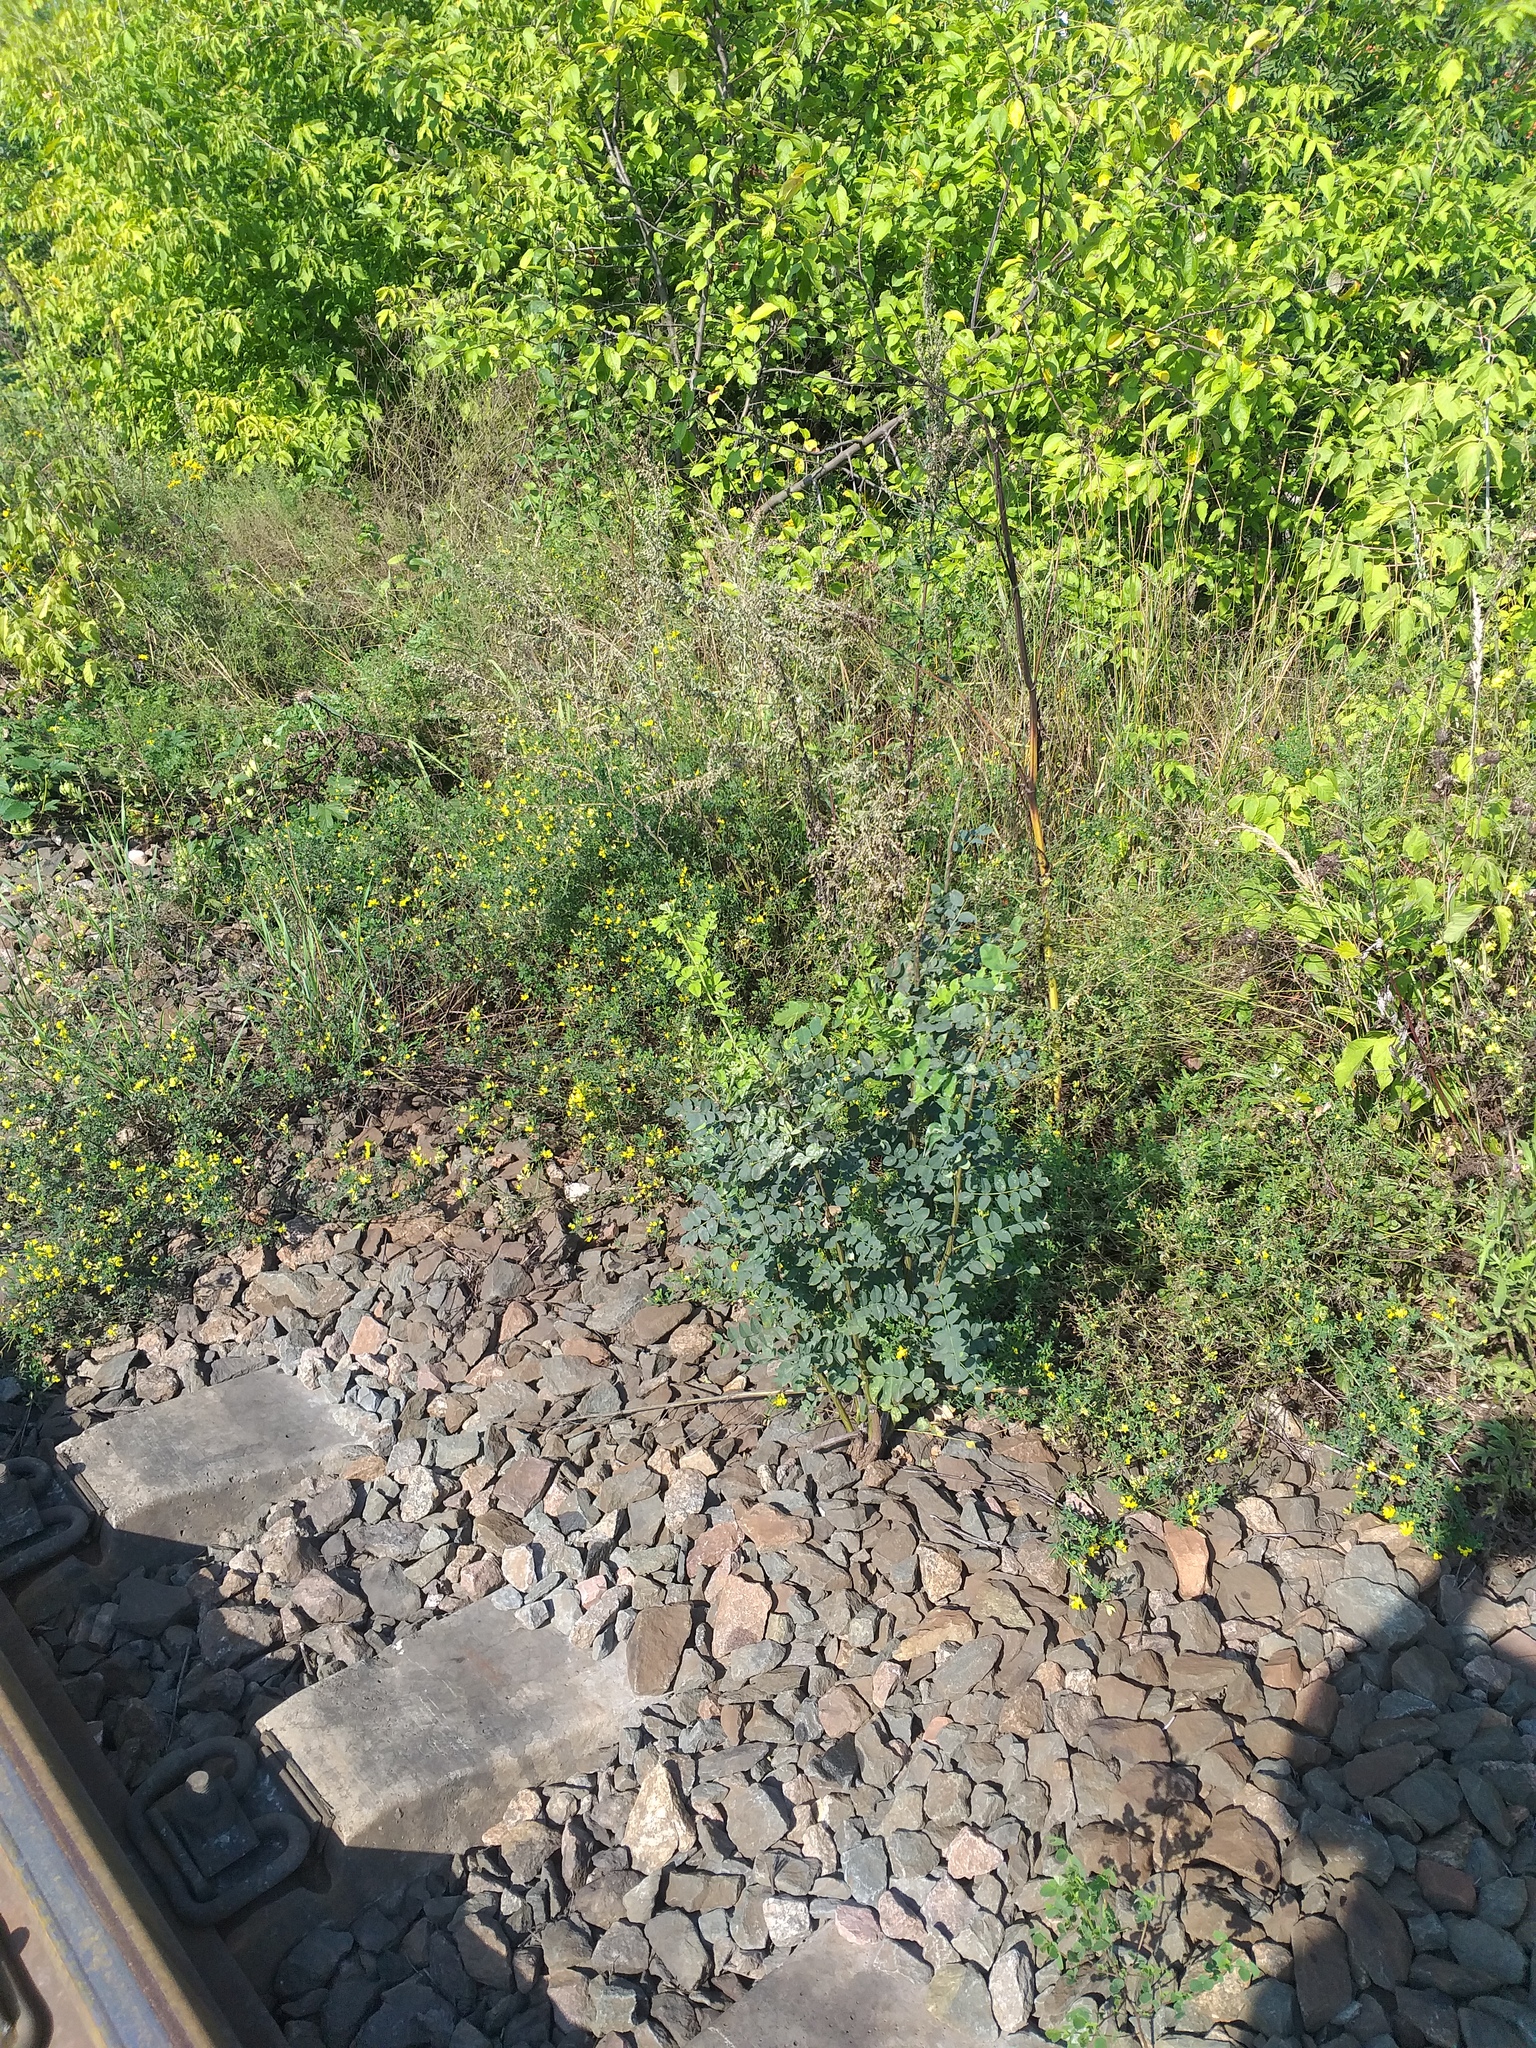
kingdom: Plantae
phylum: Tracheophyta
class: Magnoliopsida
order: Fabales
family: Fabaceae
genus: Caragana
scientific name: Caragana arborescens
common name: Siberian peashrub
